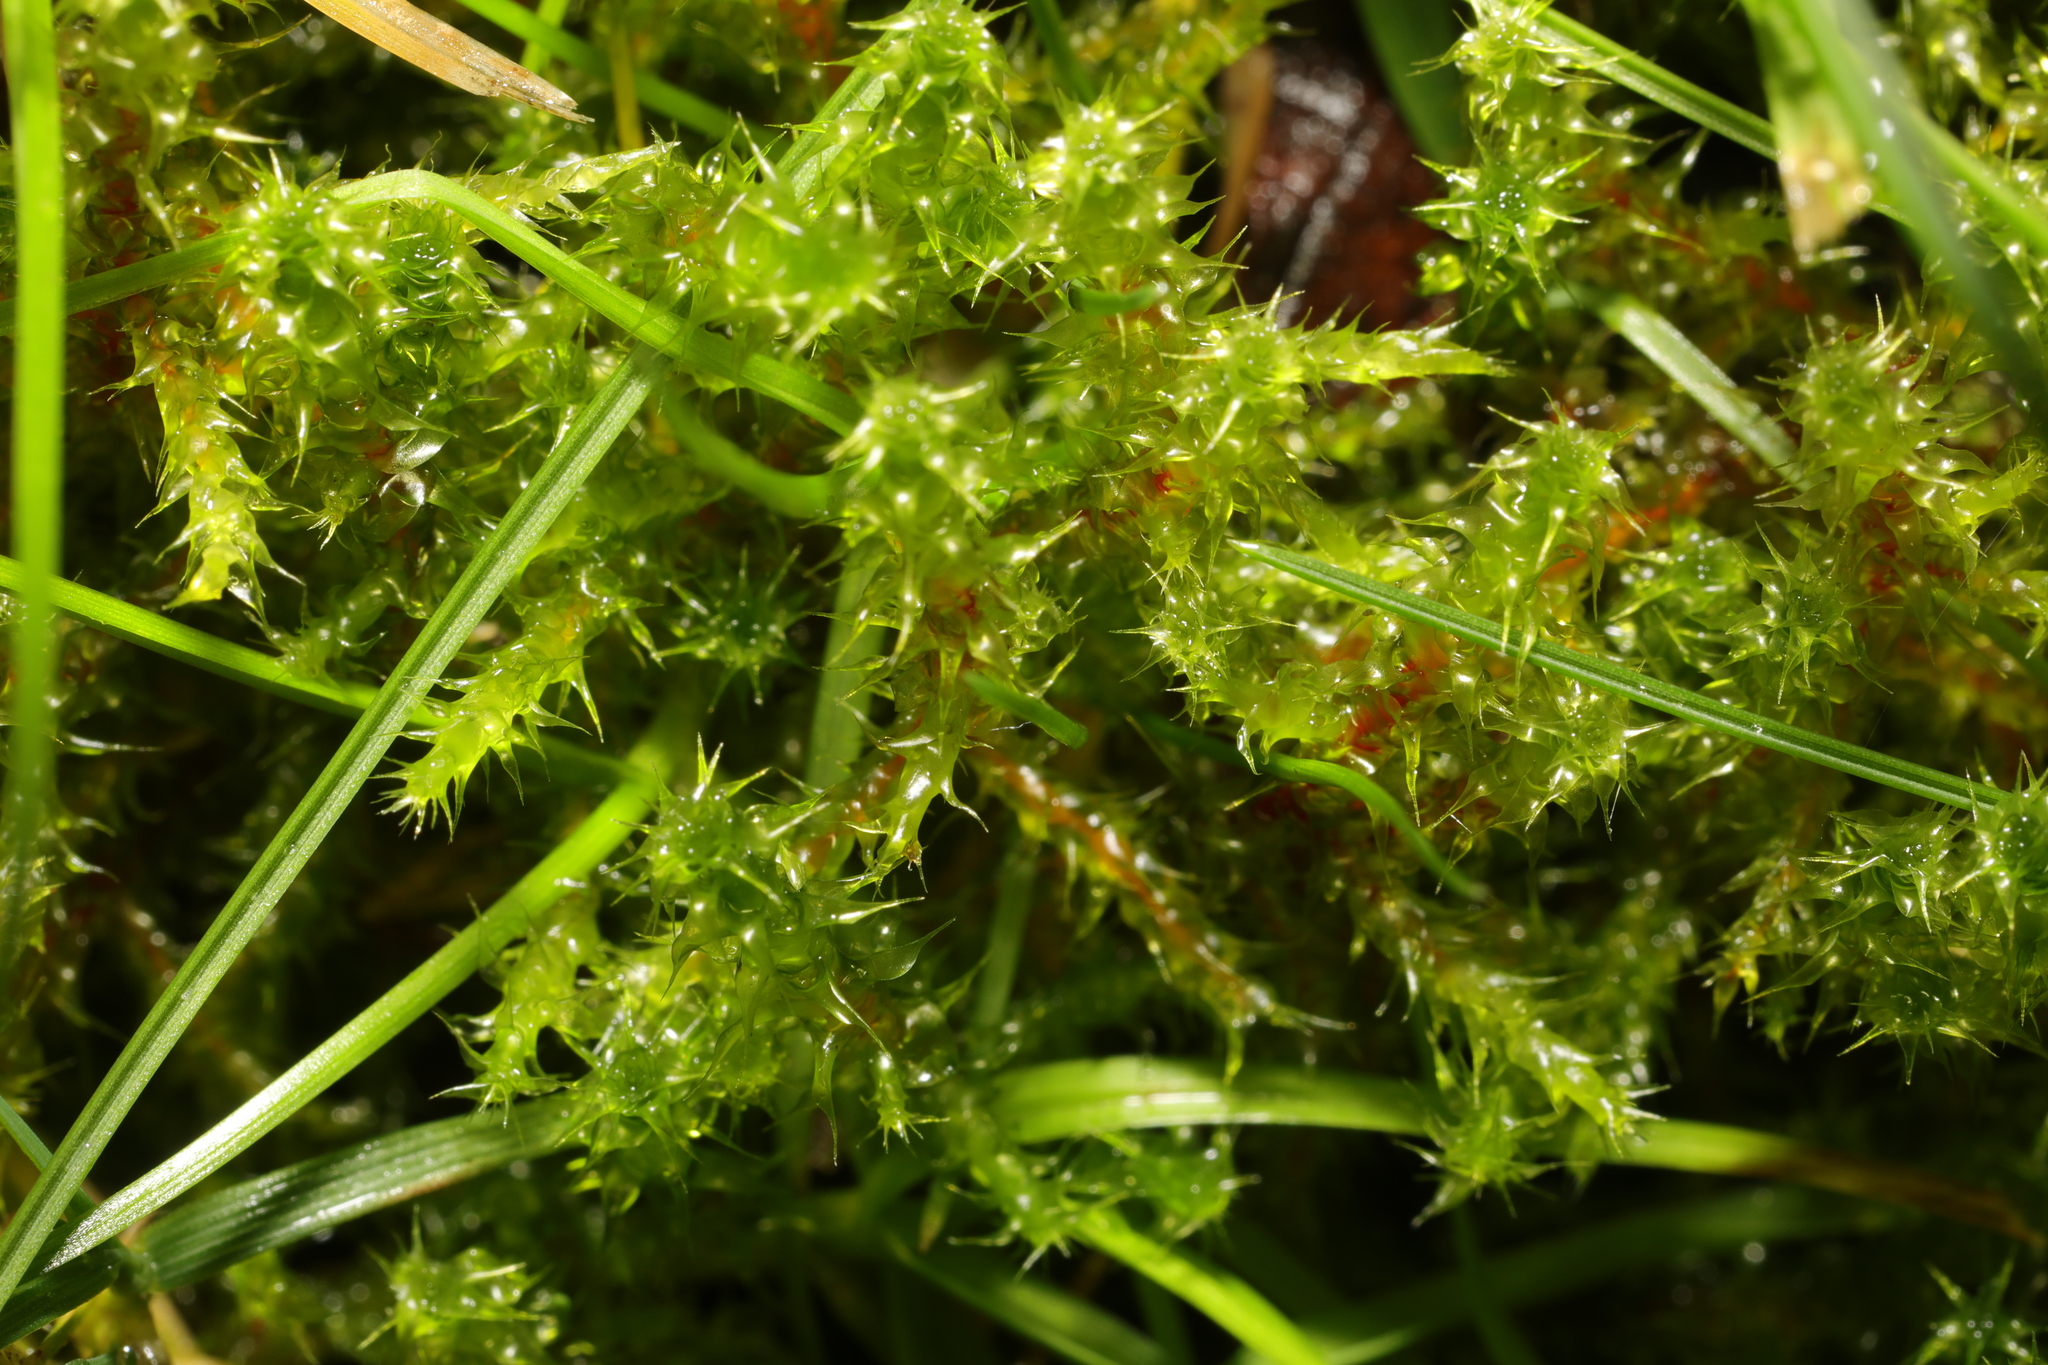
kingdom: Plantae
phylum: Bryophyta
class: Bryopsida
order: Hypnales
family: Hylocomiaceae
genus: Rhytidiadelphus
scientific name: Rhytidiadelphus squarrosus
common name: Springy turf-moss
